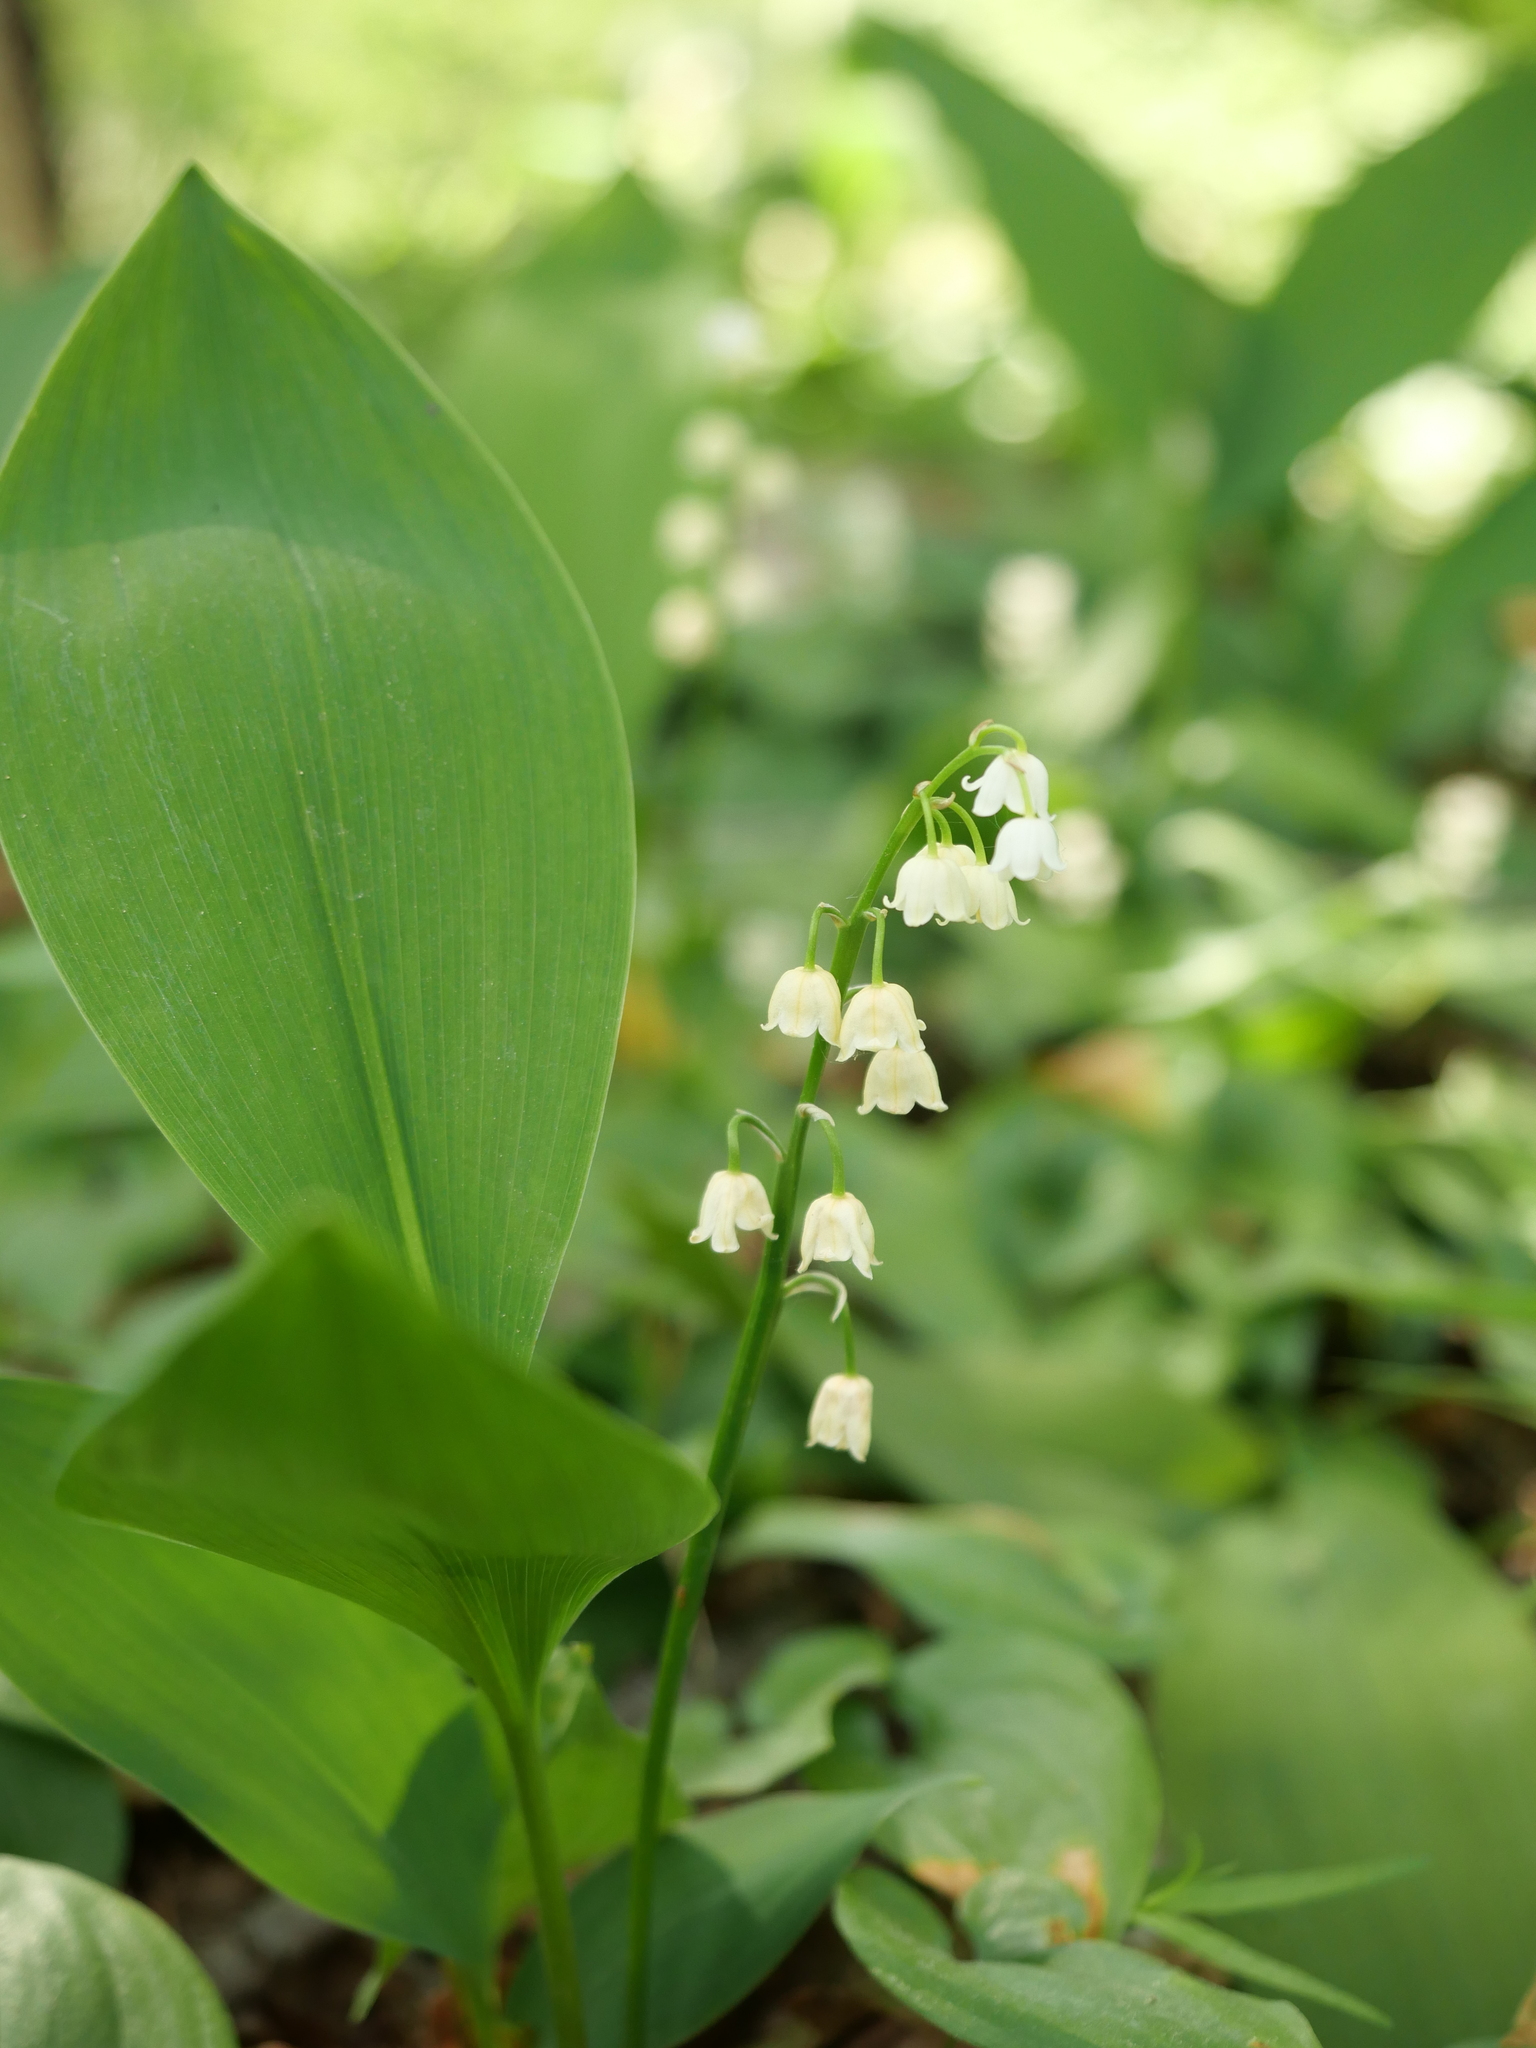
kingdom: Plantae
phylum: Tracheophyta
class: Liliopsida
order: Asparagales
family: Asparagaceae
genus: Convallaria
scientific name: Convallaria majalis
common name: Lily-of-the-valley
